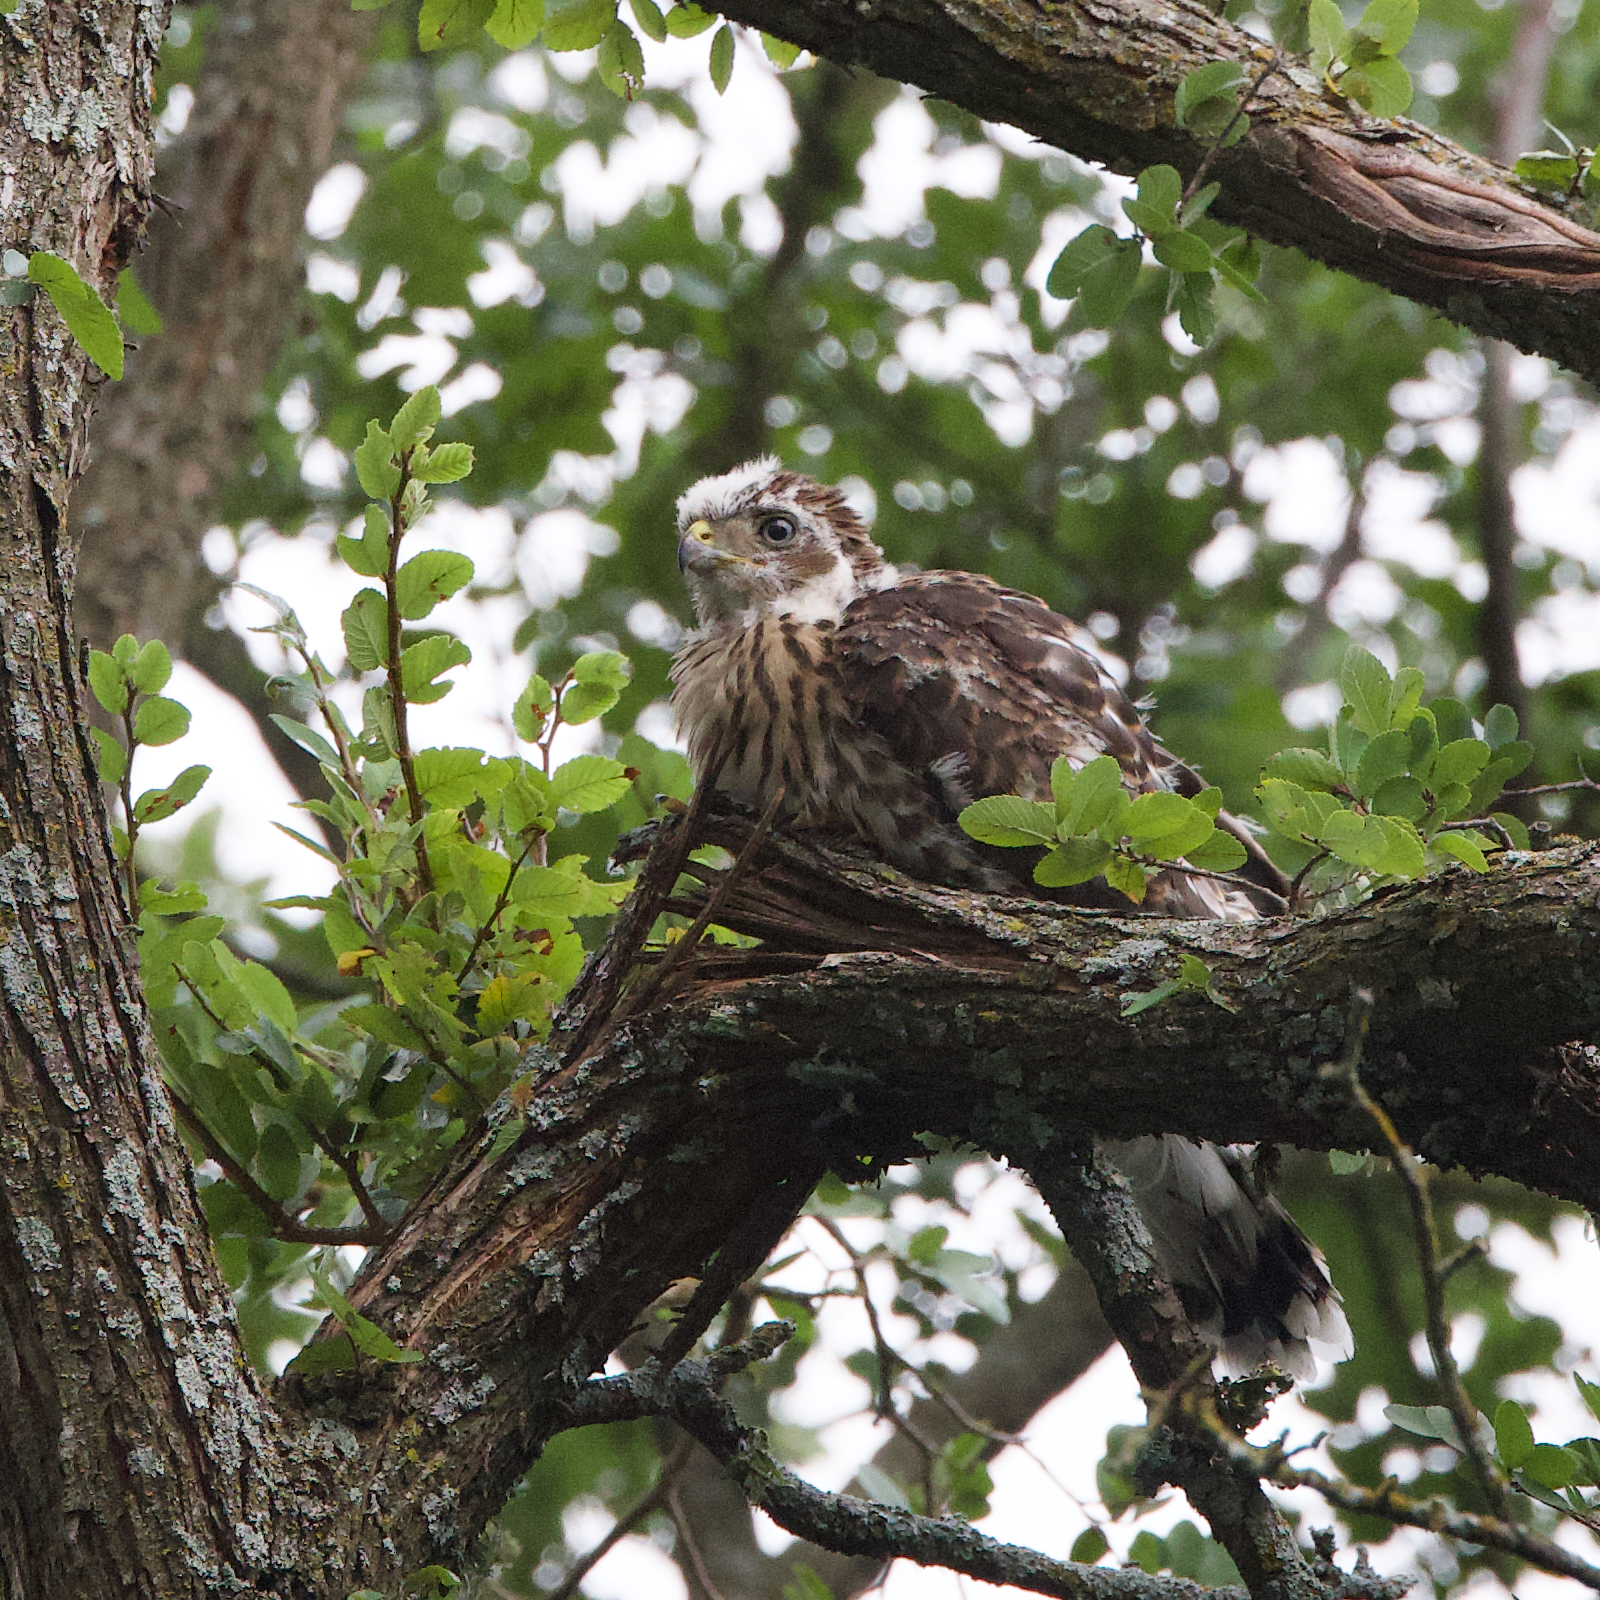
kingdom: Animalia
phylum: Chordata
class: Aves
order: Accipitriformes
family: Accipitridae
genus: Accipiter
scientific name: Accipiter cooperii
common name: Cooper's hawk
